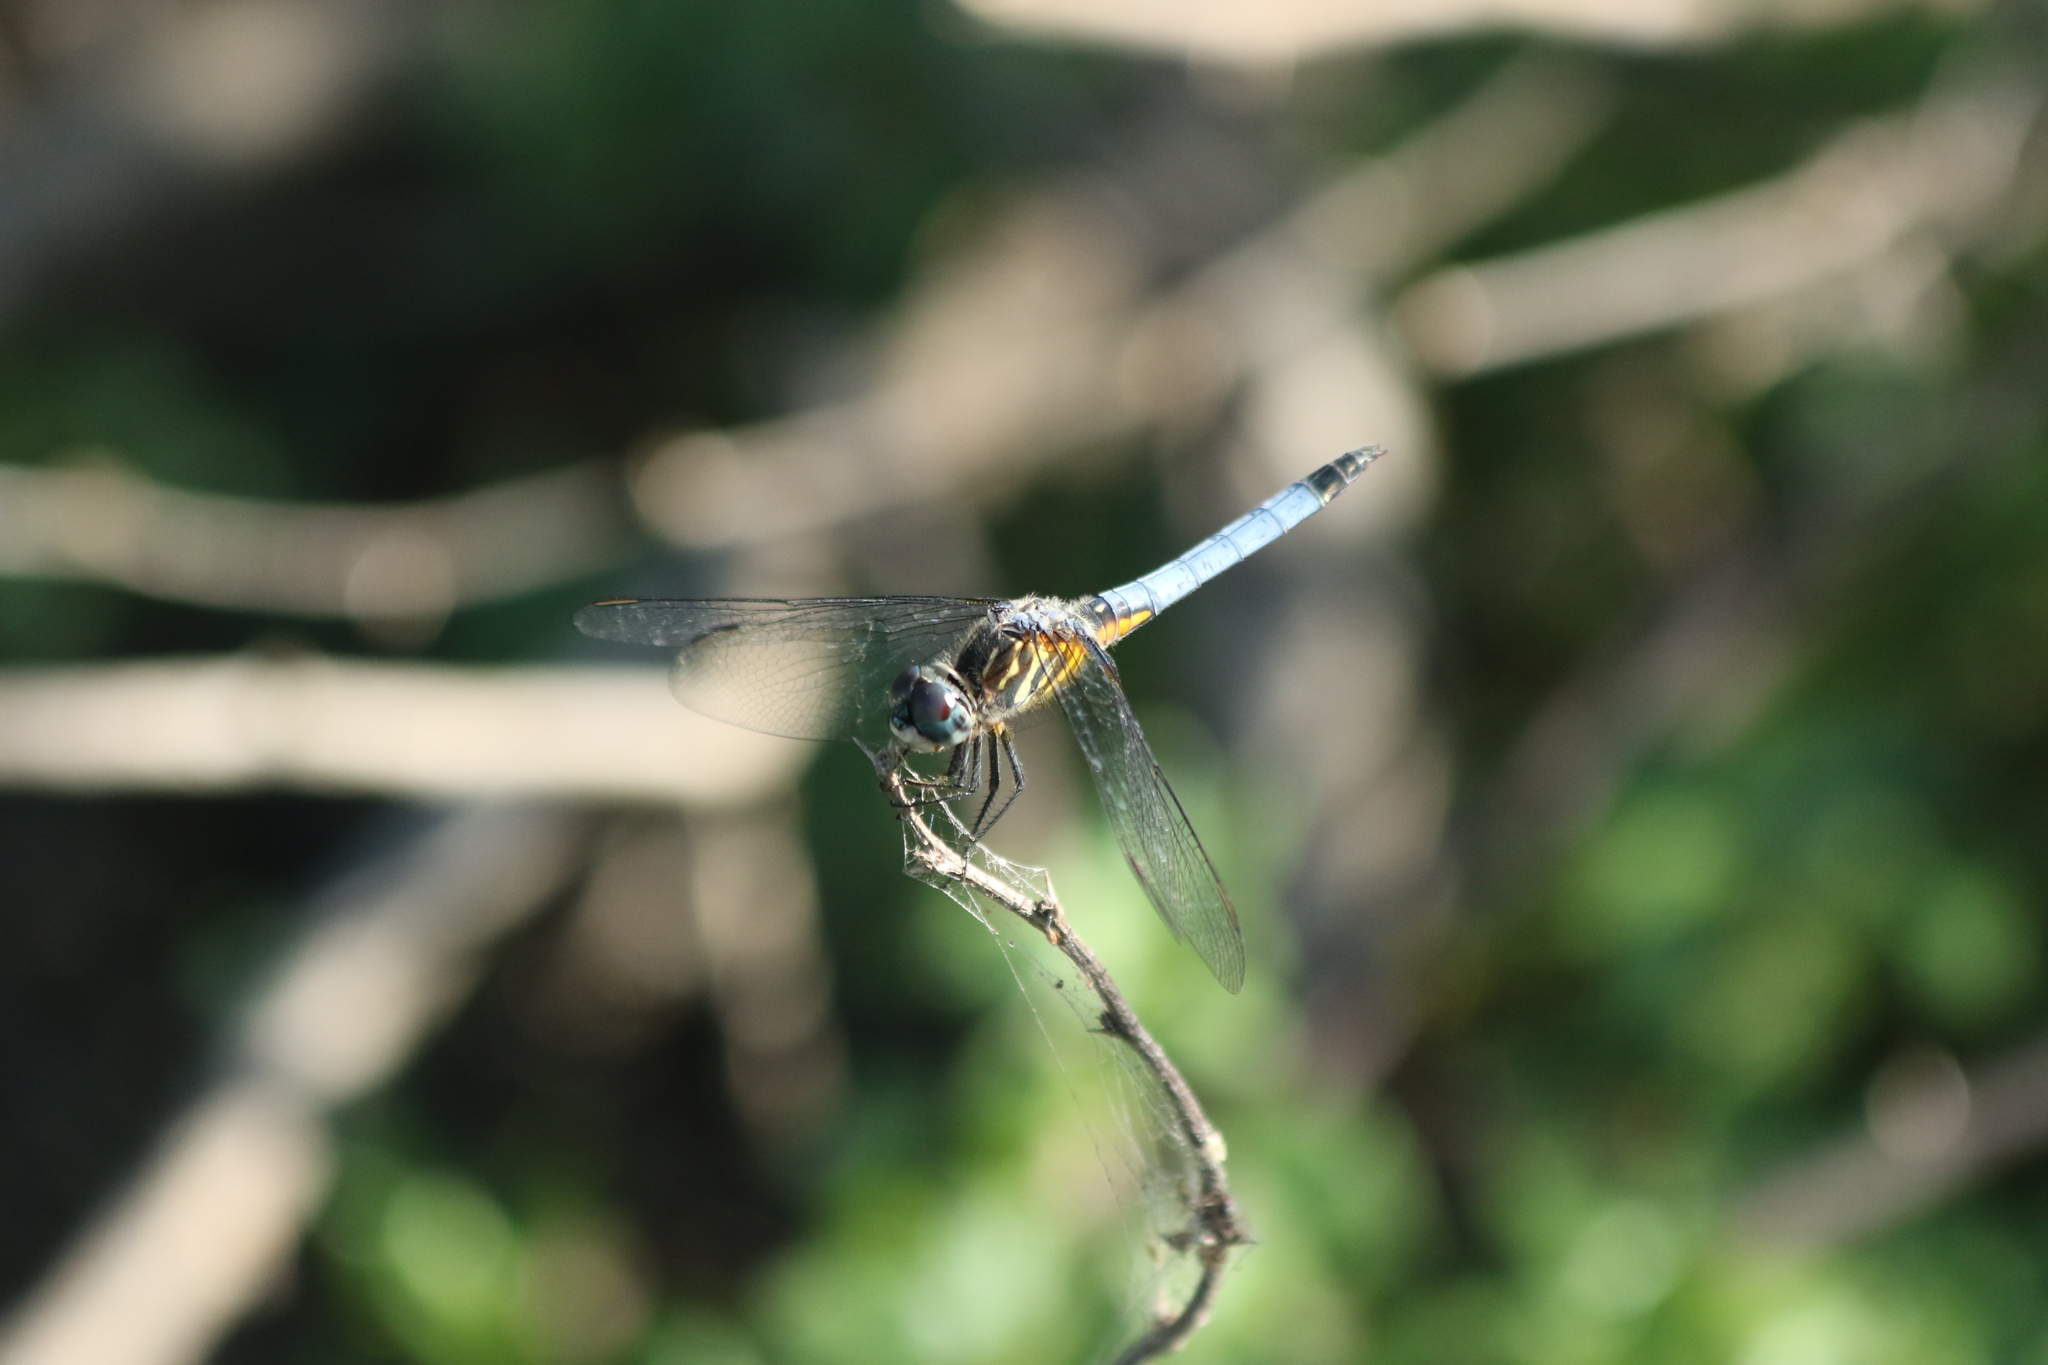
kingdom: Animalia
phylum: Arthropoda
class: Insecta
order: Odonata
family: Libellulidae
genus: Pachydiplax
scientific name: Pachydiplax longipennis
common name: Blue dasher
